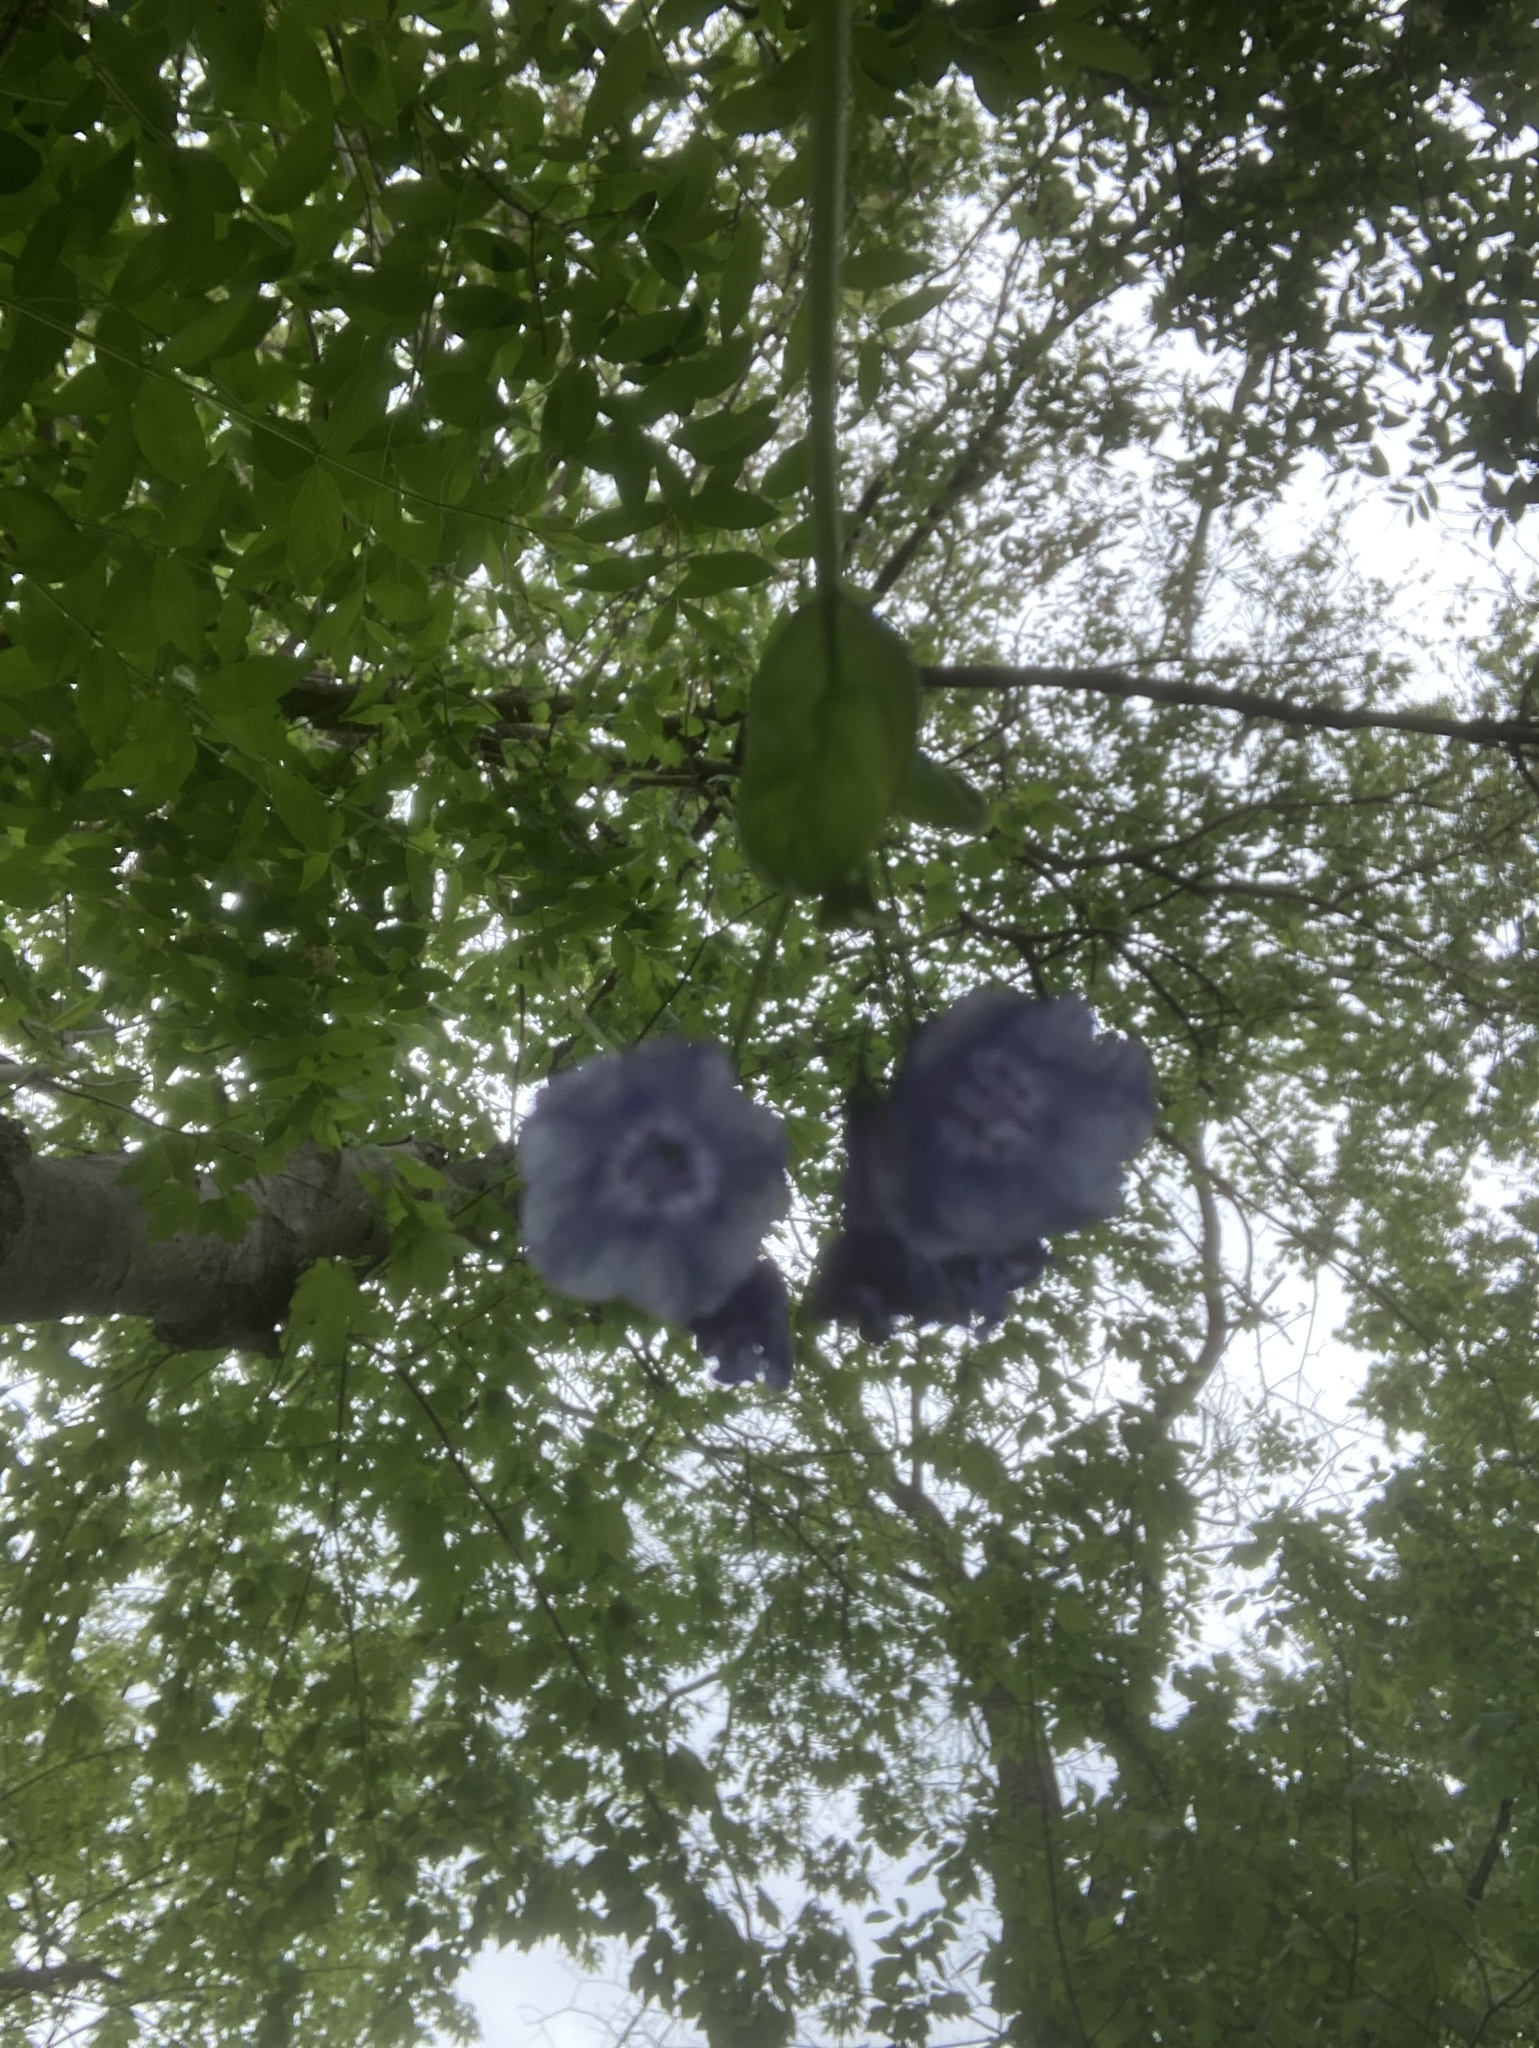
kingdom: Plantae
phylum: Tracheophyta
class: Magnoliopsida
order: Boraginales
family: Boraginaceae
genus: Mertensia
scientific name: Mertensia virginica
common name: Virginia bluebells
